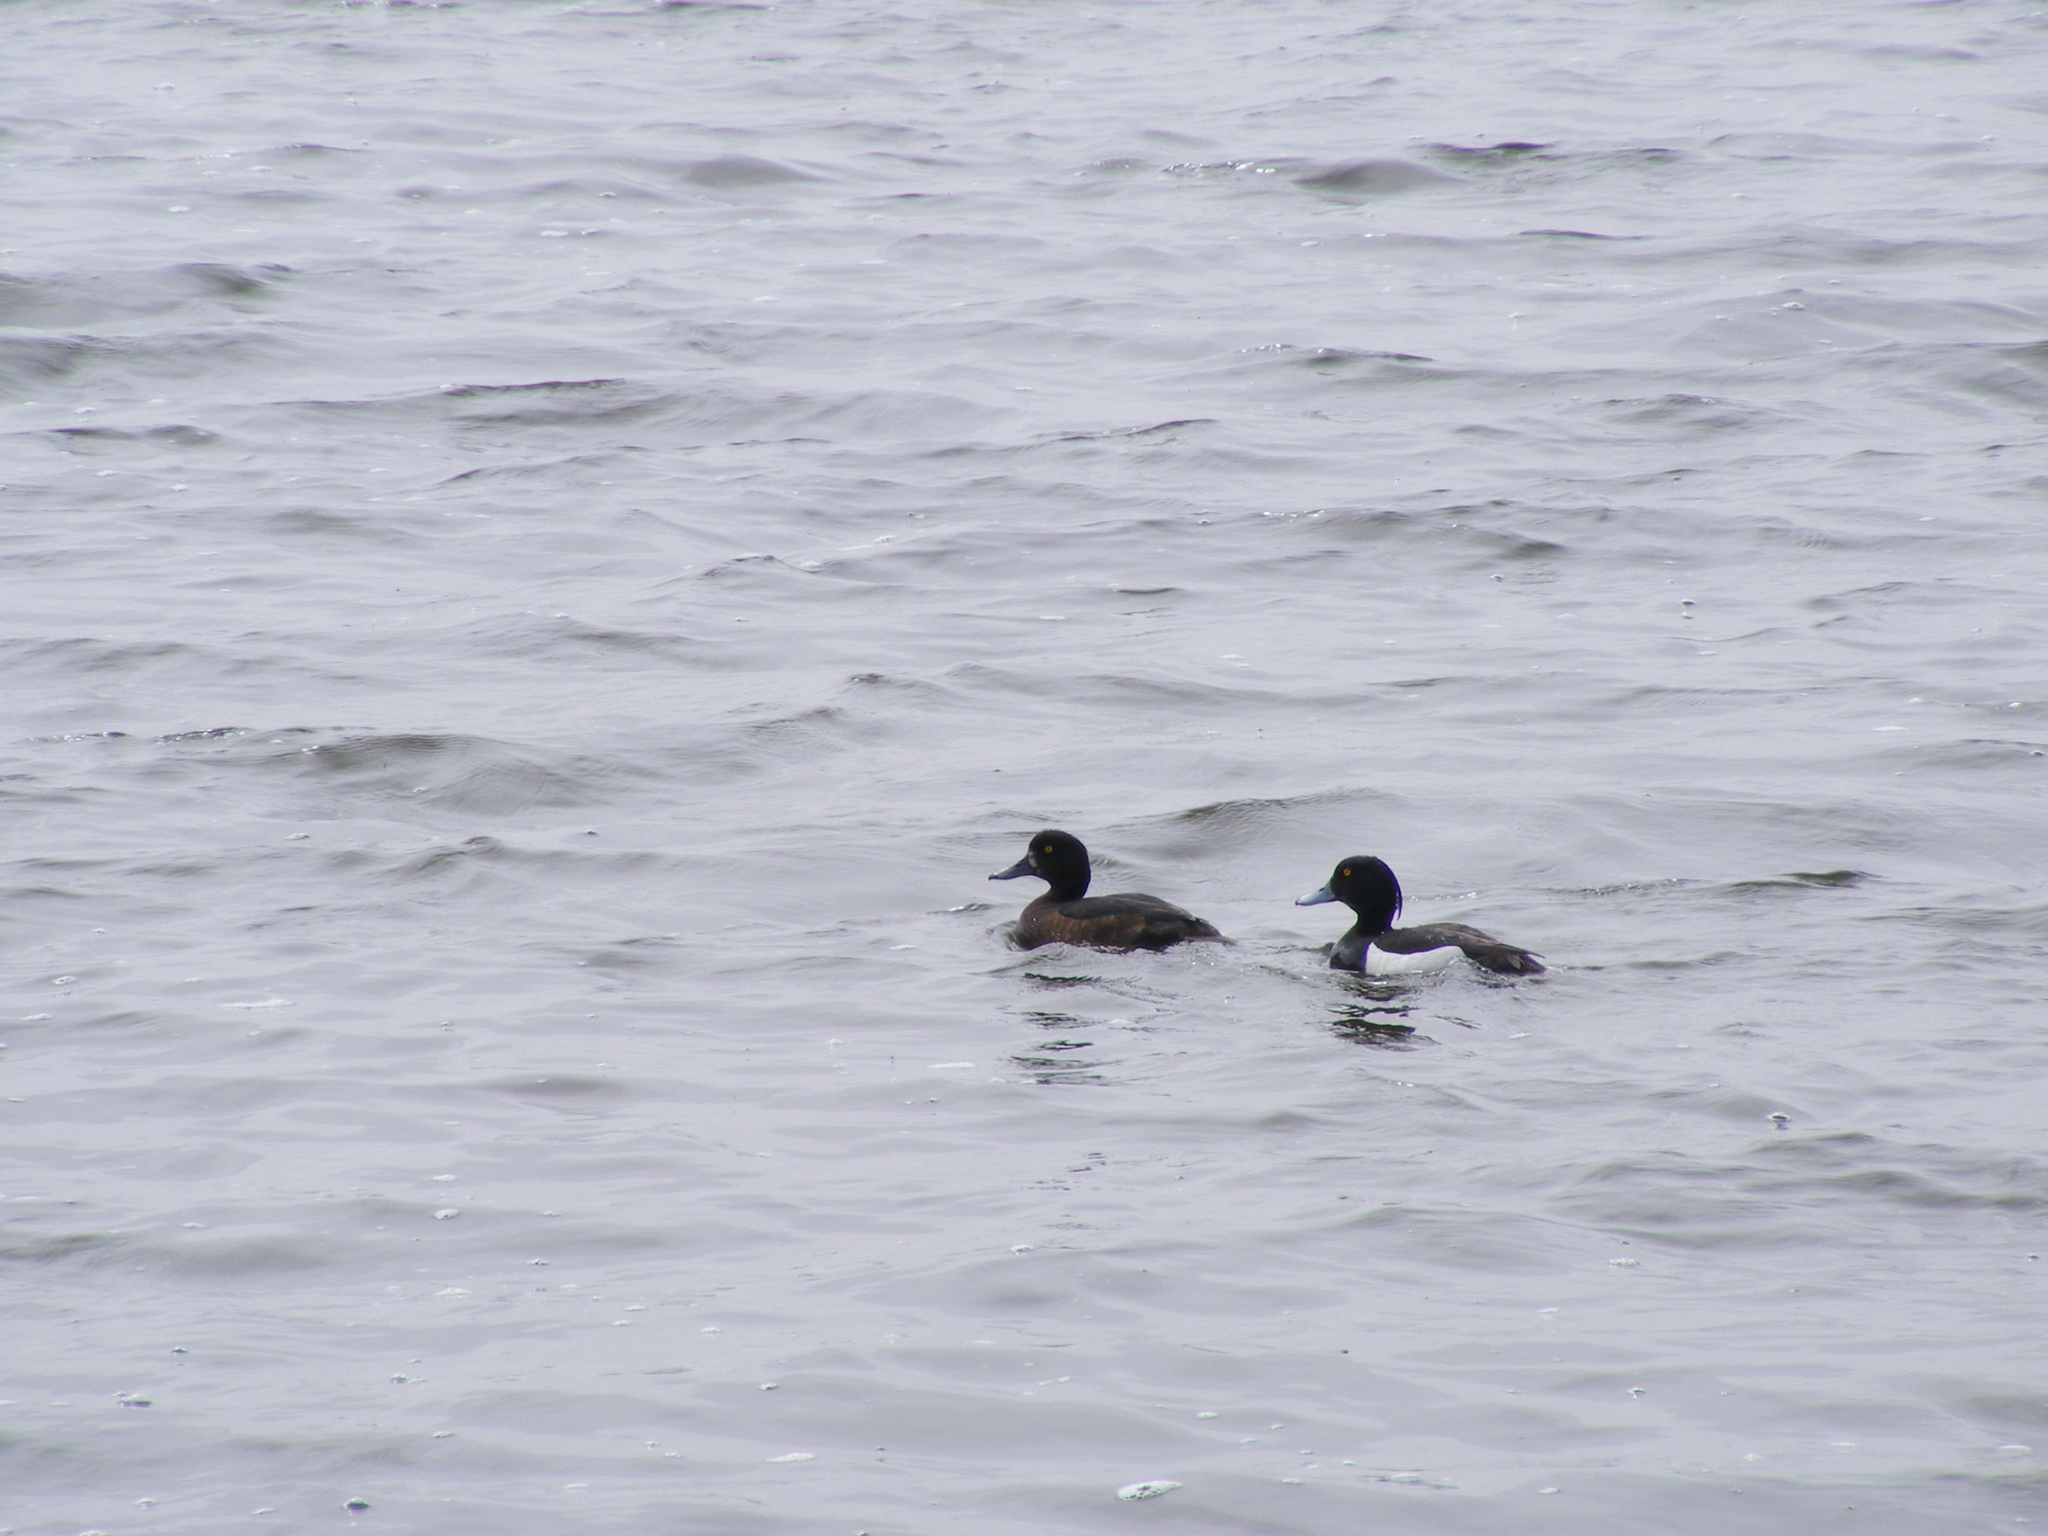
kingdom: Animalia
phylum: Chordata
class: Aves
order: Anseriformes
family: Anatidae
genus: Aythya
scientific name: Aythya fuligula
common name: Tufted duck
